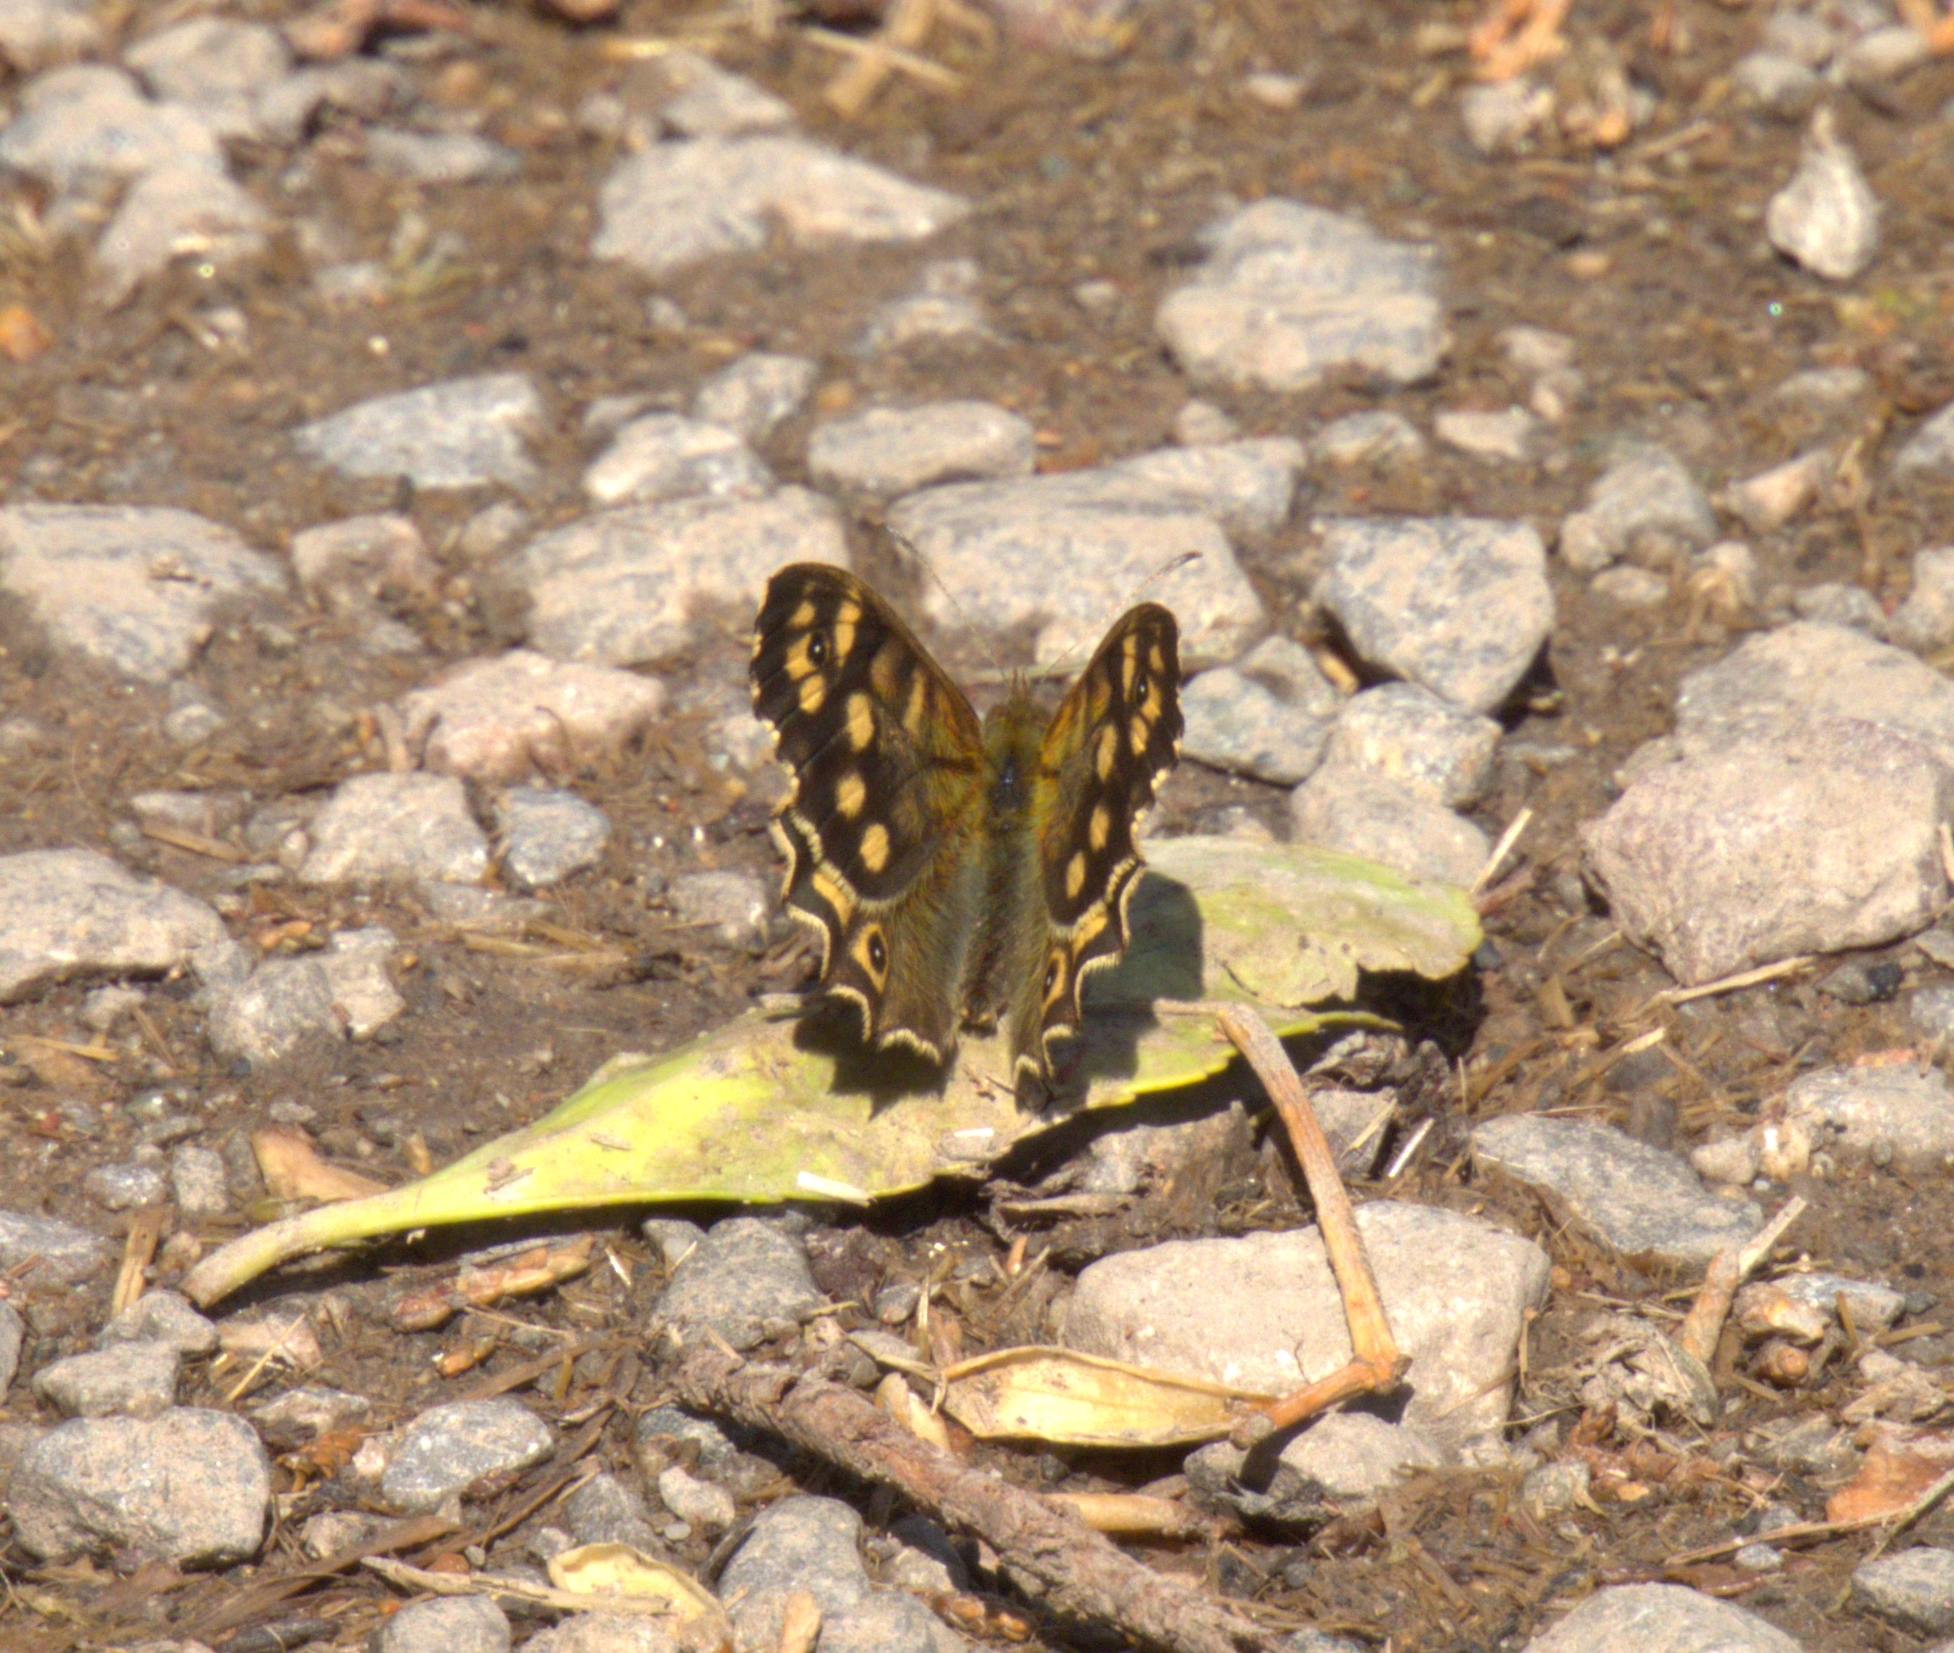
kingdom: Animalia
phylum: Arthropoda
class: Insecta
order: Lepidoptera
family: Nymphalidae
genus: Pararge
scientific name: Pararge aegeria
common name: Speckled wood
